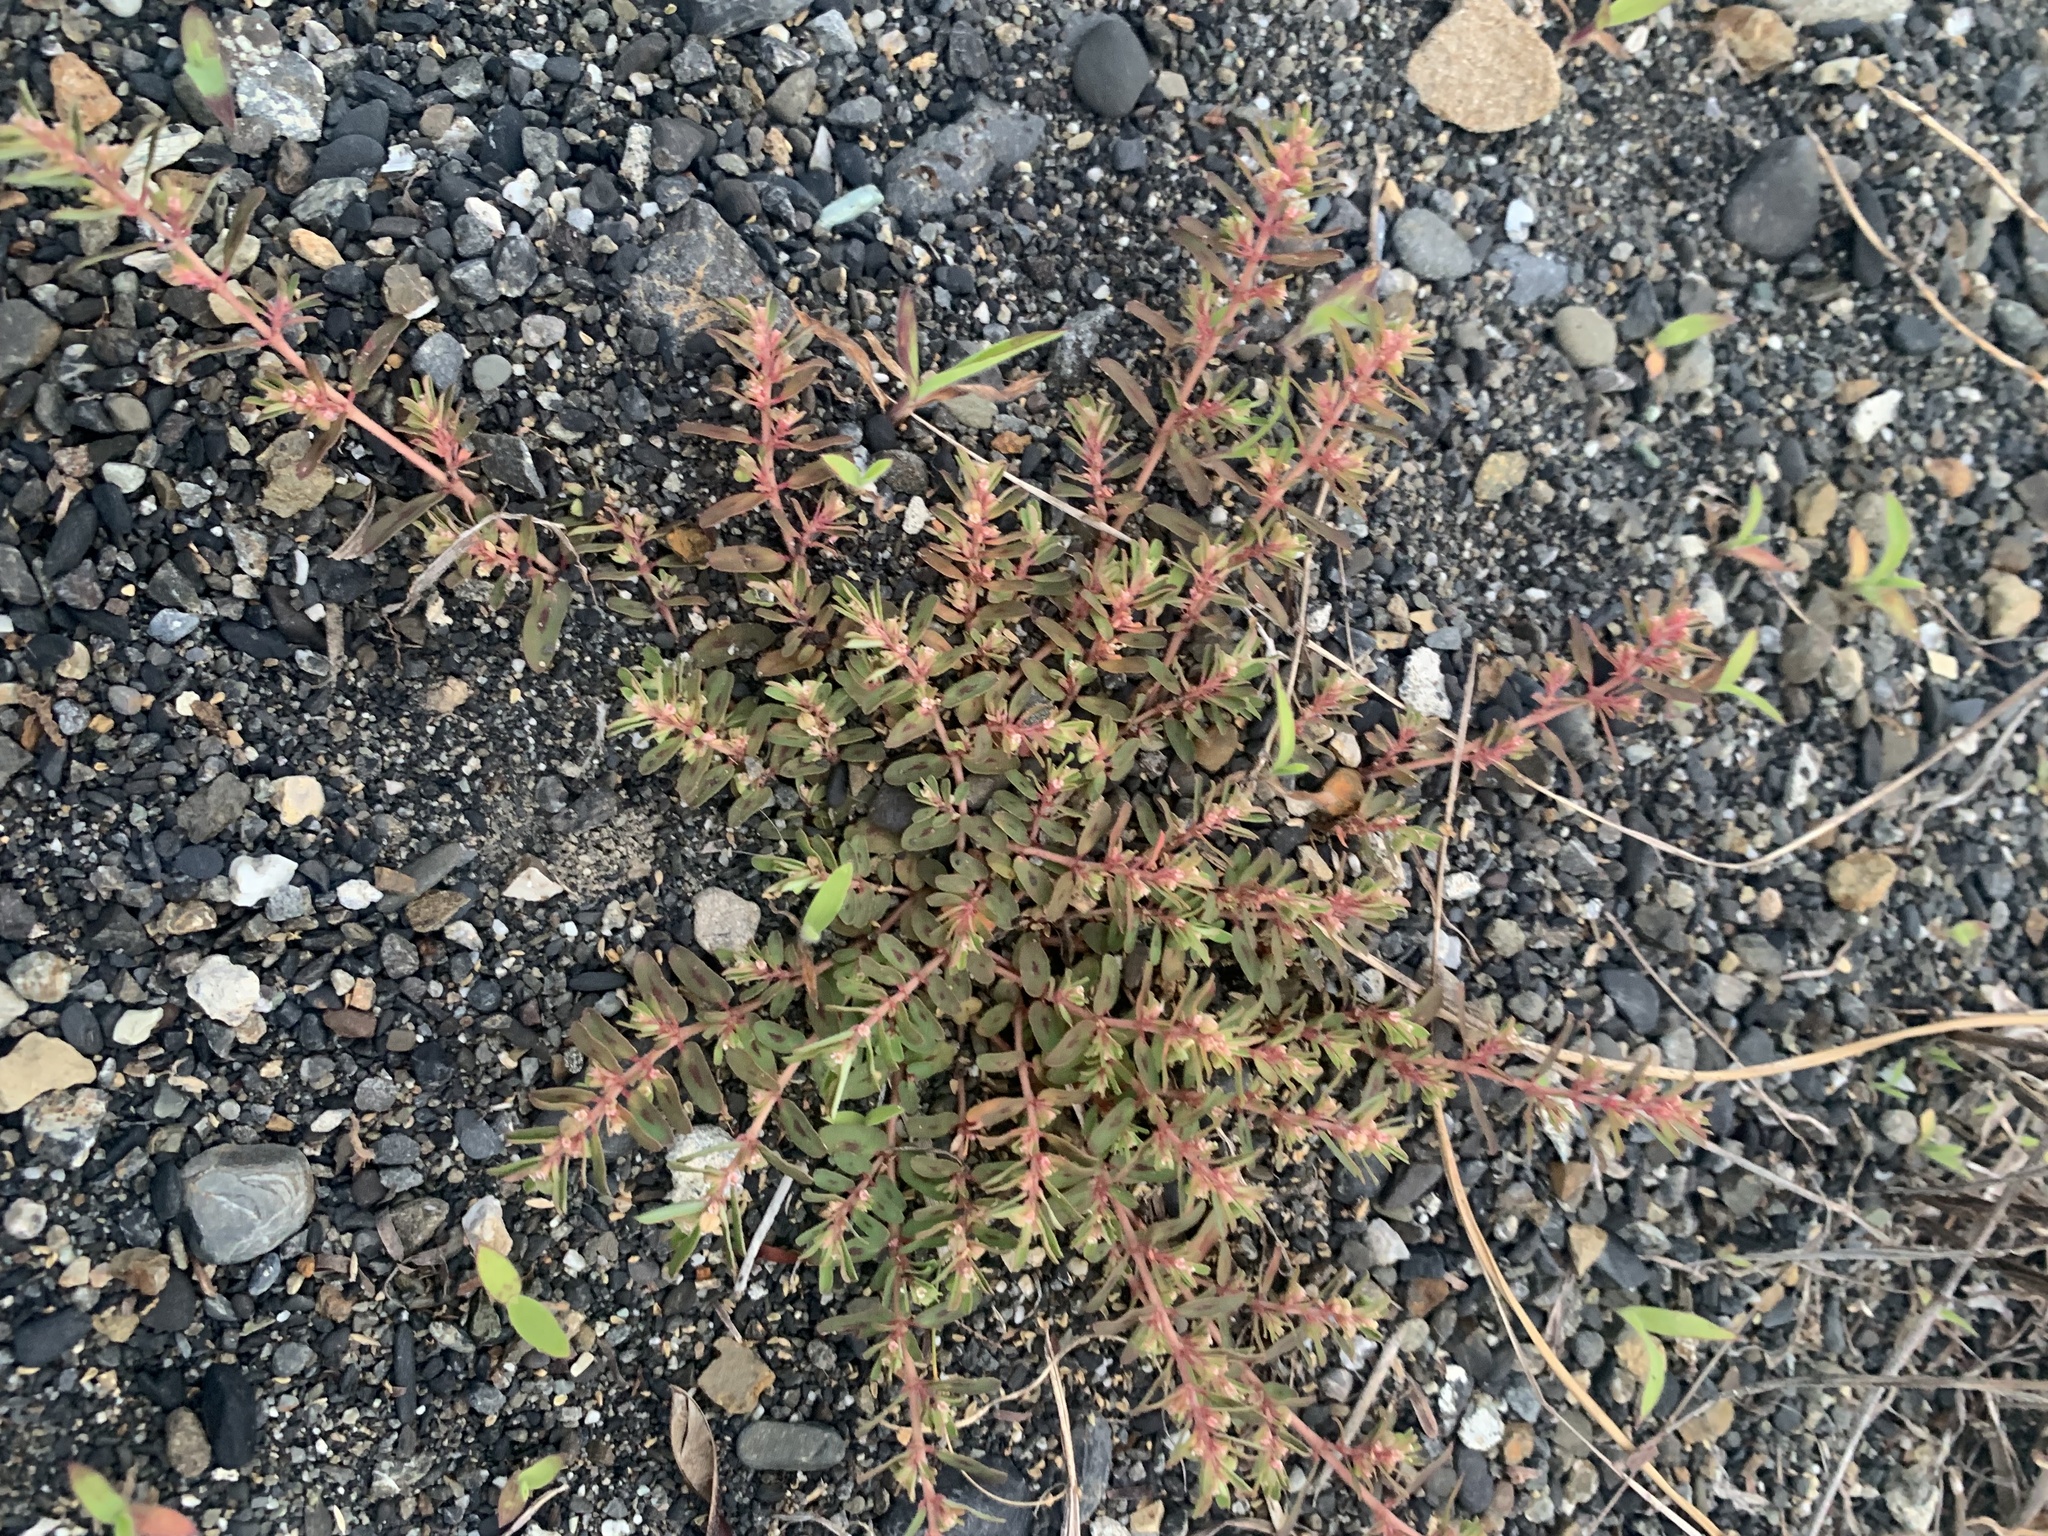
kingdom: Plantae
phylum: Tracheophyta
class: Magnoliopsida
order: Malpighiales
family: Euphorbiaceae
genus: Euphorbia
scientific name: Euphorbia maculata
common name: Spotted spurge
